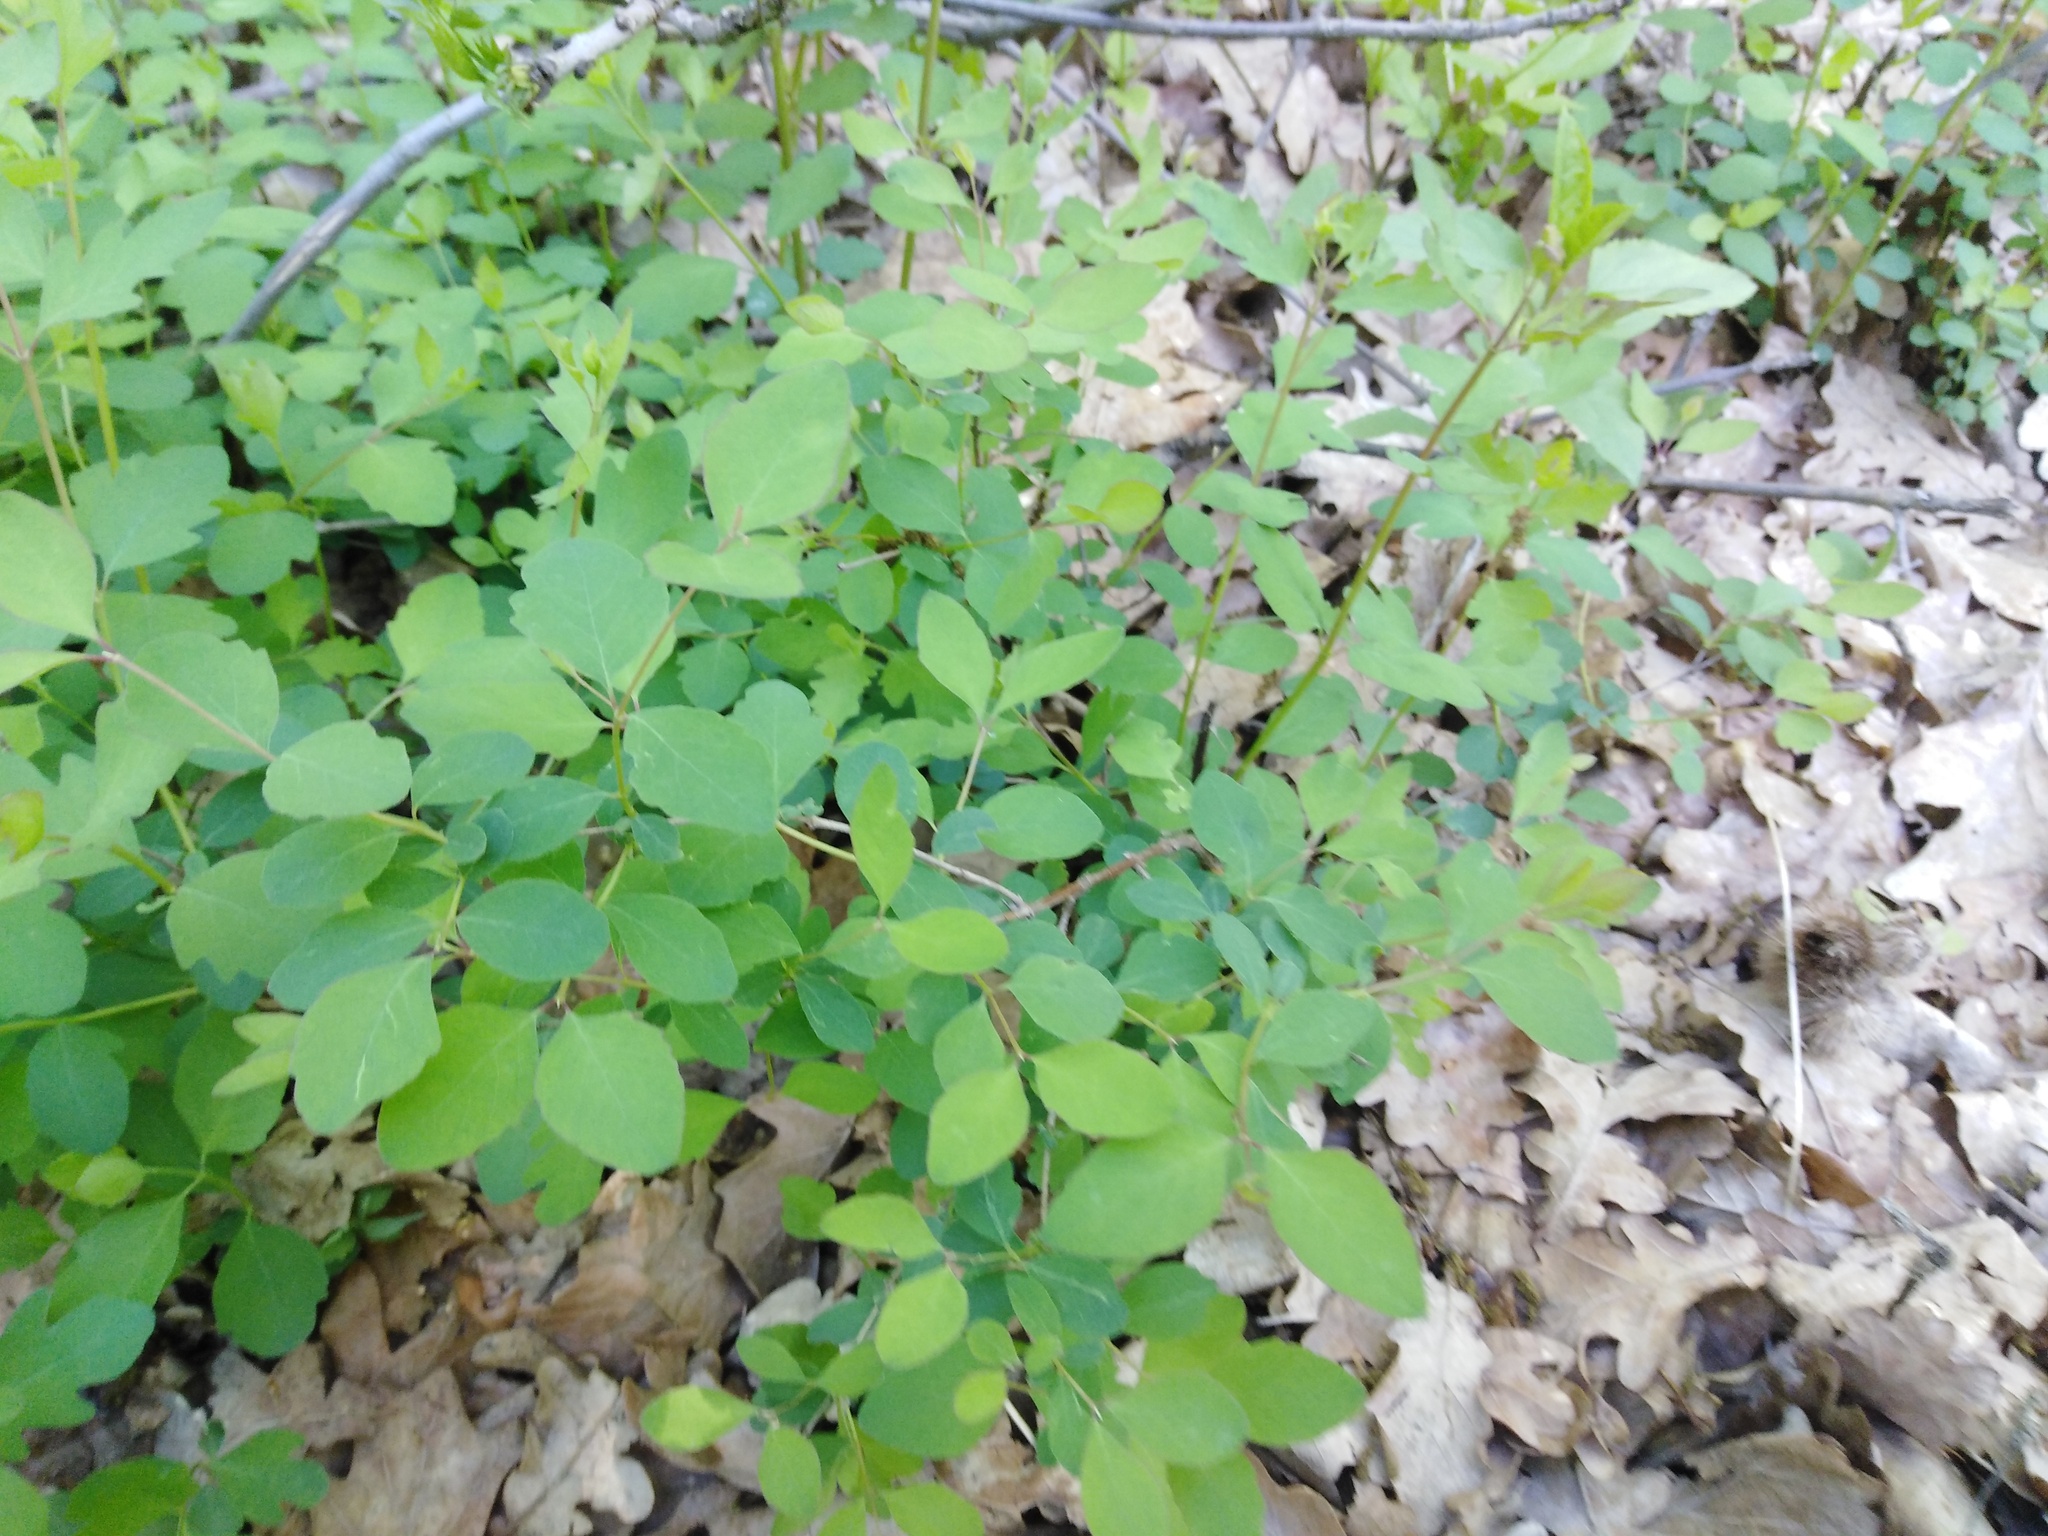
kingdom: Plantae
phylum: Tracheophyta
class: Magnoliopsida
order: Dipsacales
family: Caprifoliaceae
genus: Symphoricarpos
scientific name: Symphoricarpos albus
